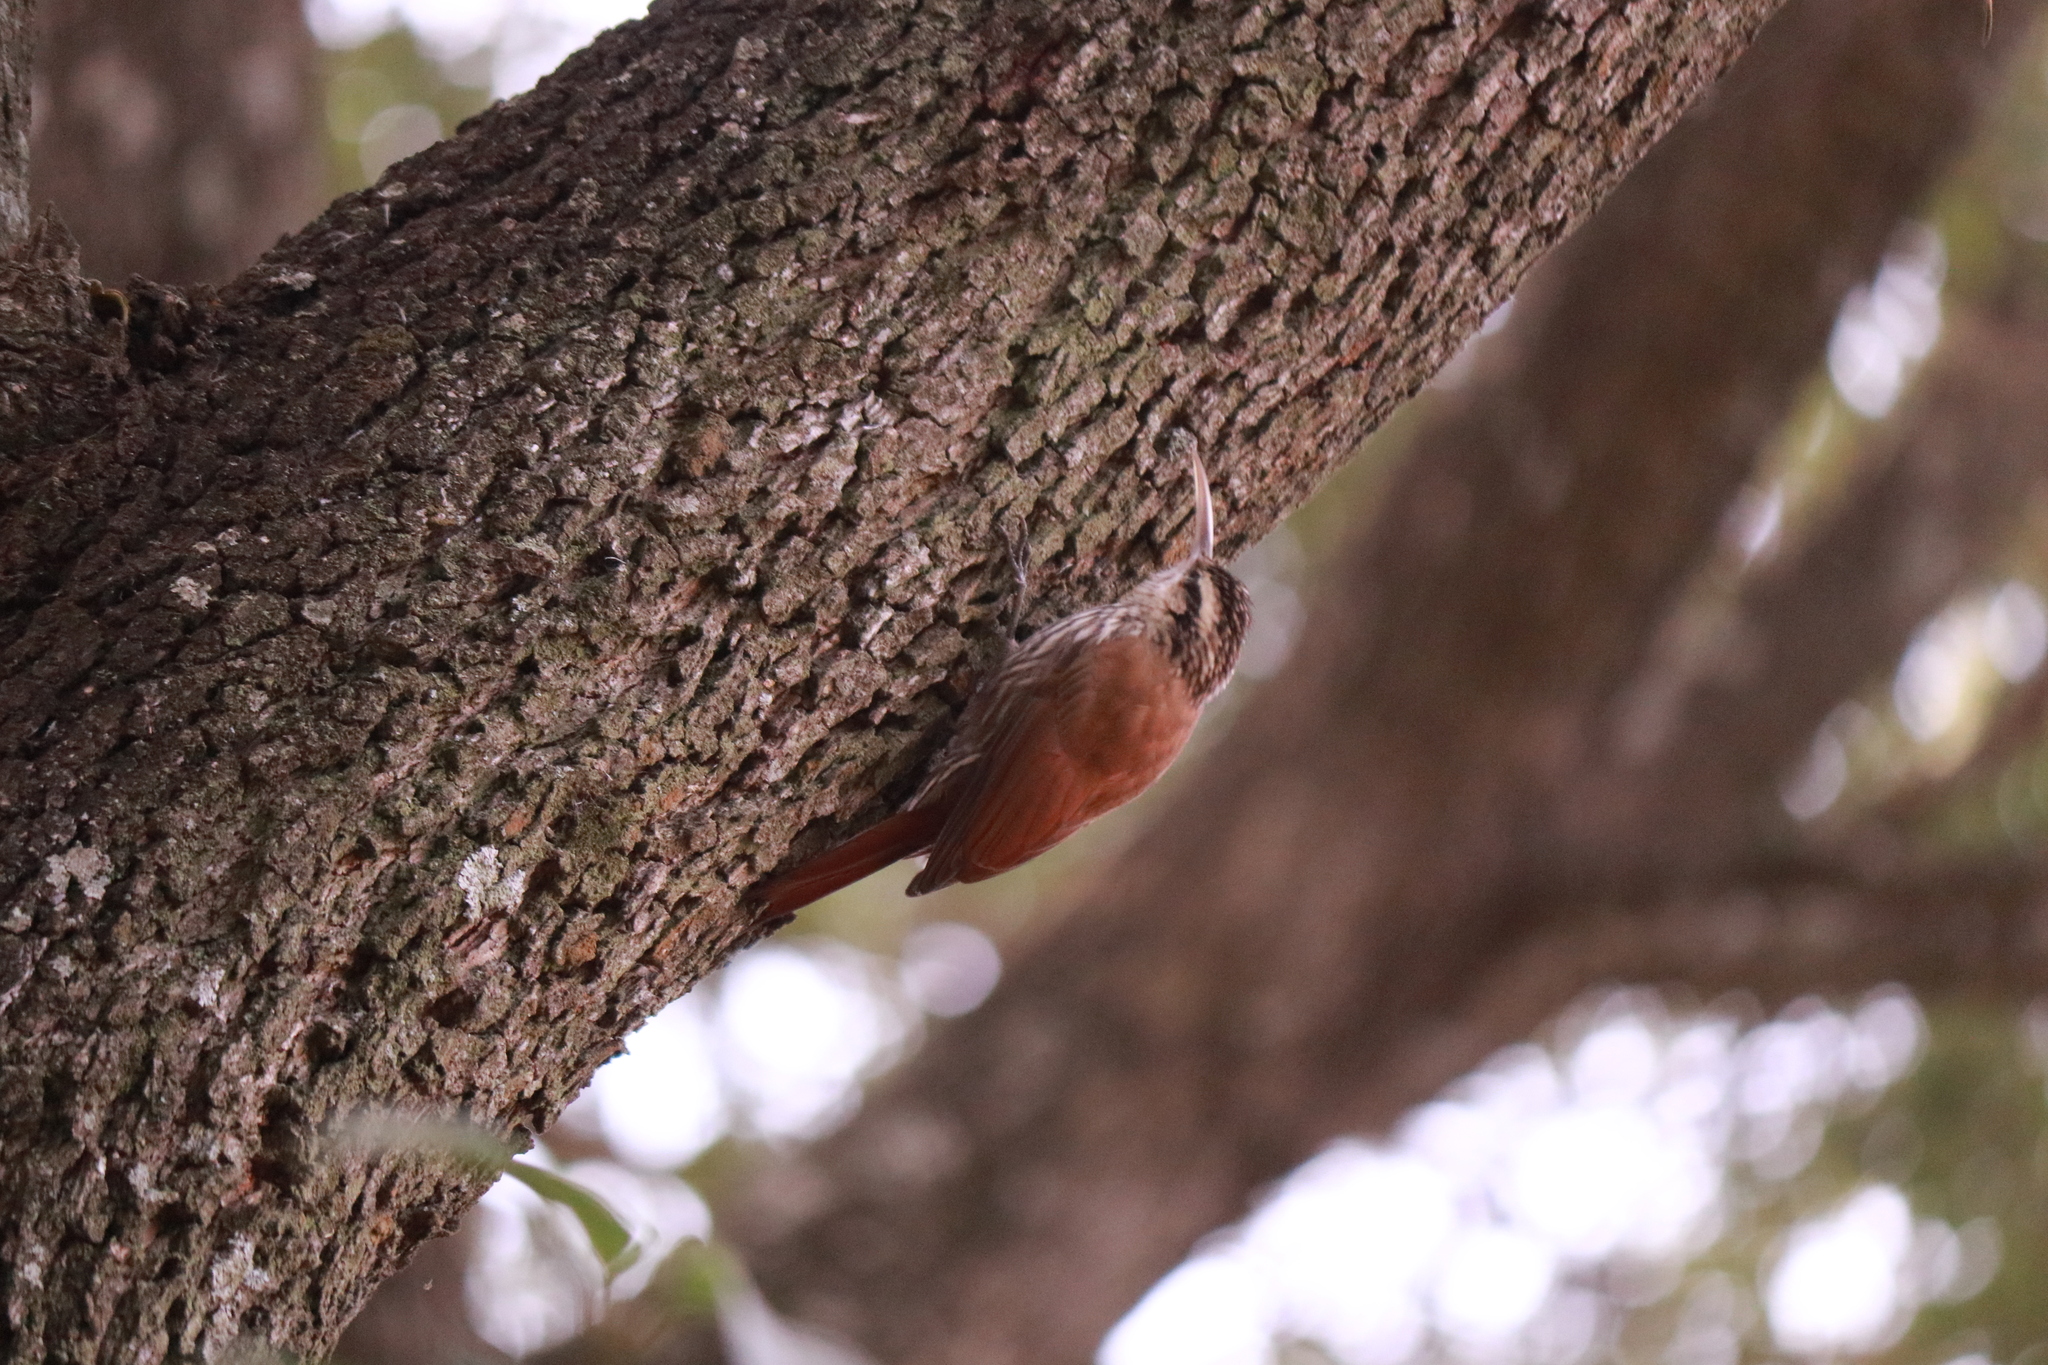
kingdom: Animalia
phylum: Chordata
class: Aves
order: Passeriformes
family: Furnariidae
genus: Lepidocolaptes
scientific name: Lepidocolaptes angustirostris
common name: Narrow-billed woodcreeper
